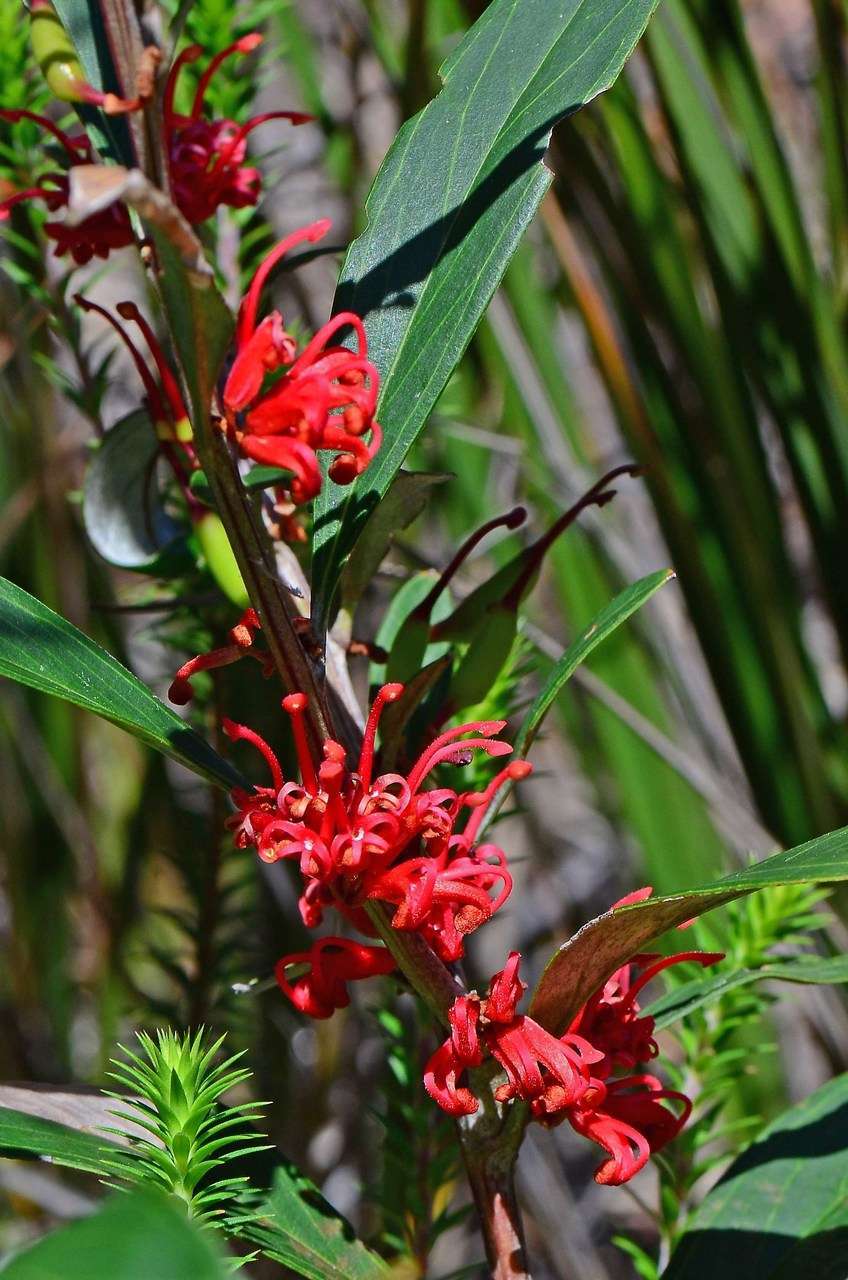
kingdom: Plantae
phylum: Tracheophyta
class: Magnoliopsida
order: Proteales
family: Proteaceae
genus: Grevillea
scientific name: Grevillea dimorpha
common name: Flame grevillea
